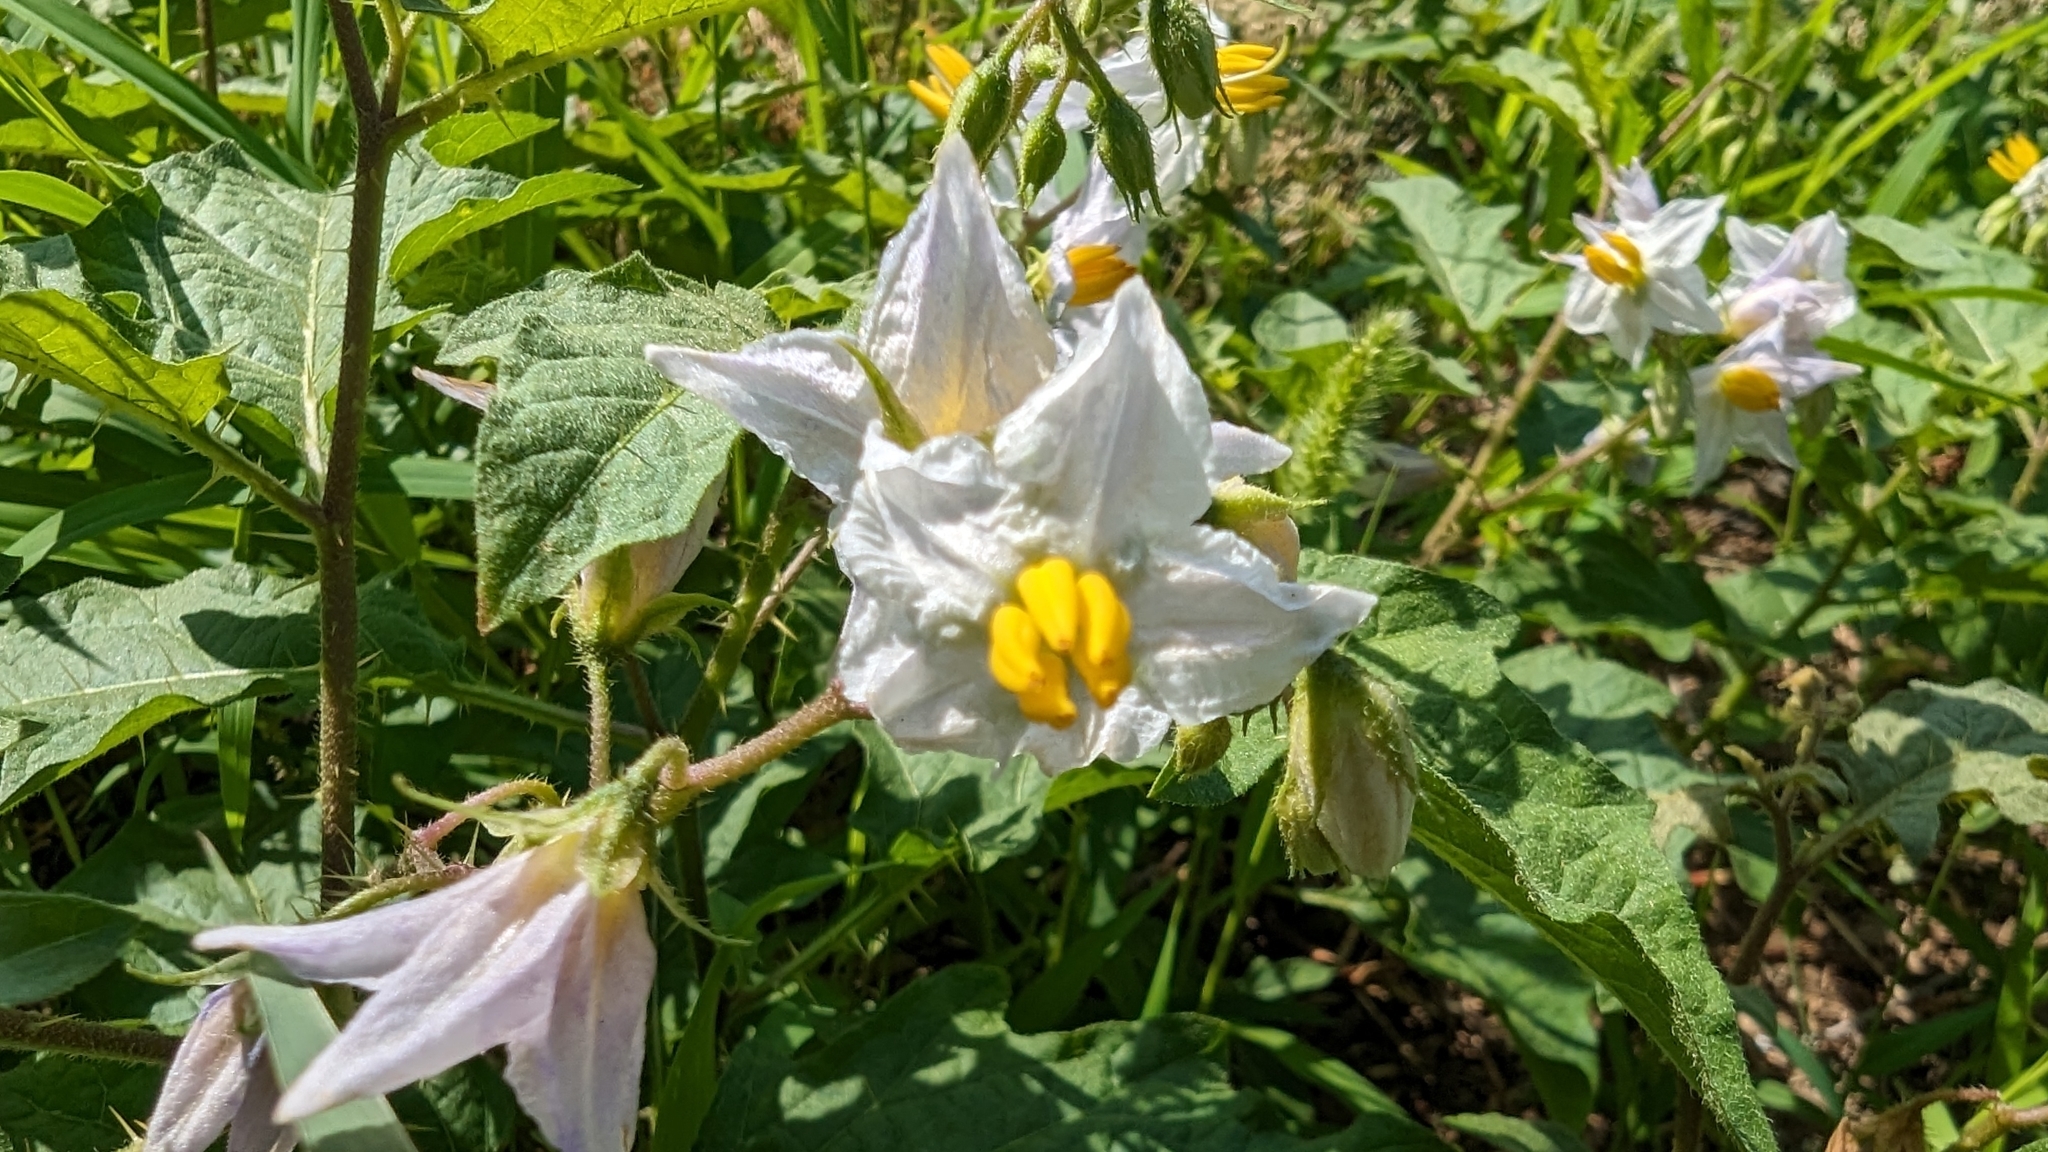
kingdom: Plantae
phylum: Tracheophyta
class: Magnoliopsida
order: Solanales
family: Solanaceae
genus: Solanum
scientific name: Solanum carolinense
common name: Horse-nettle
